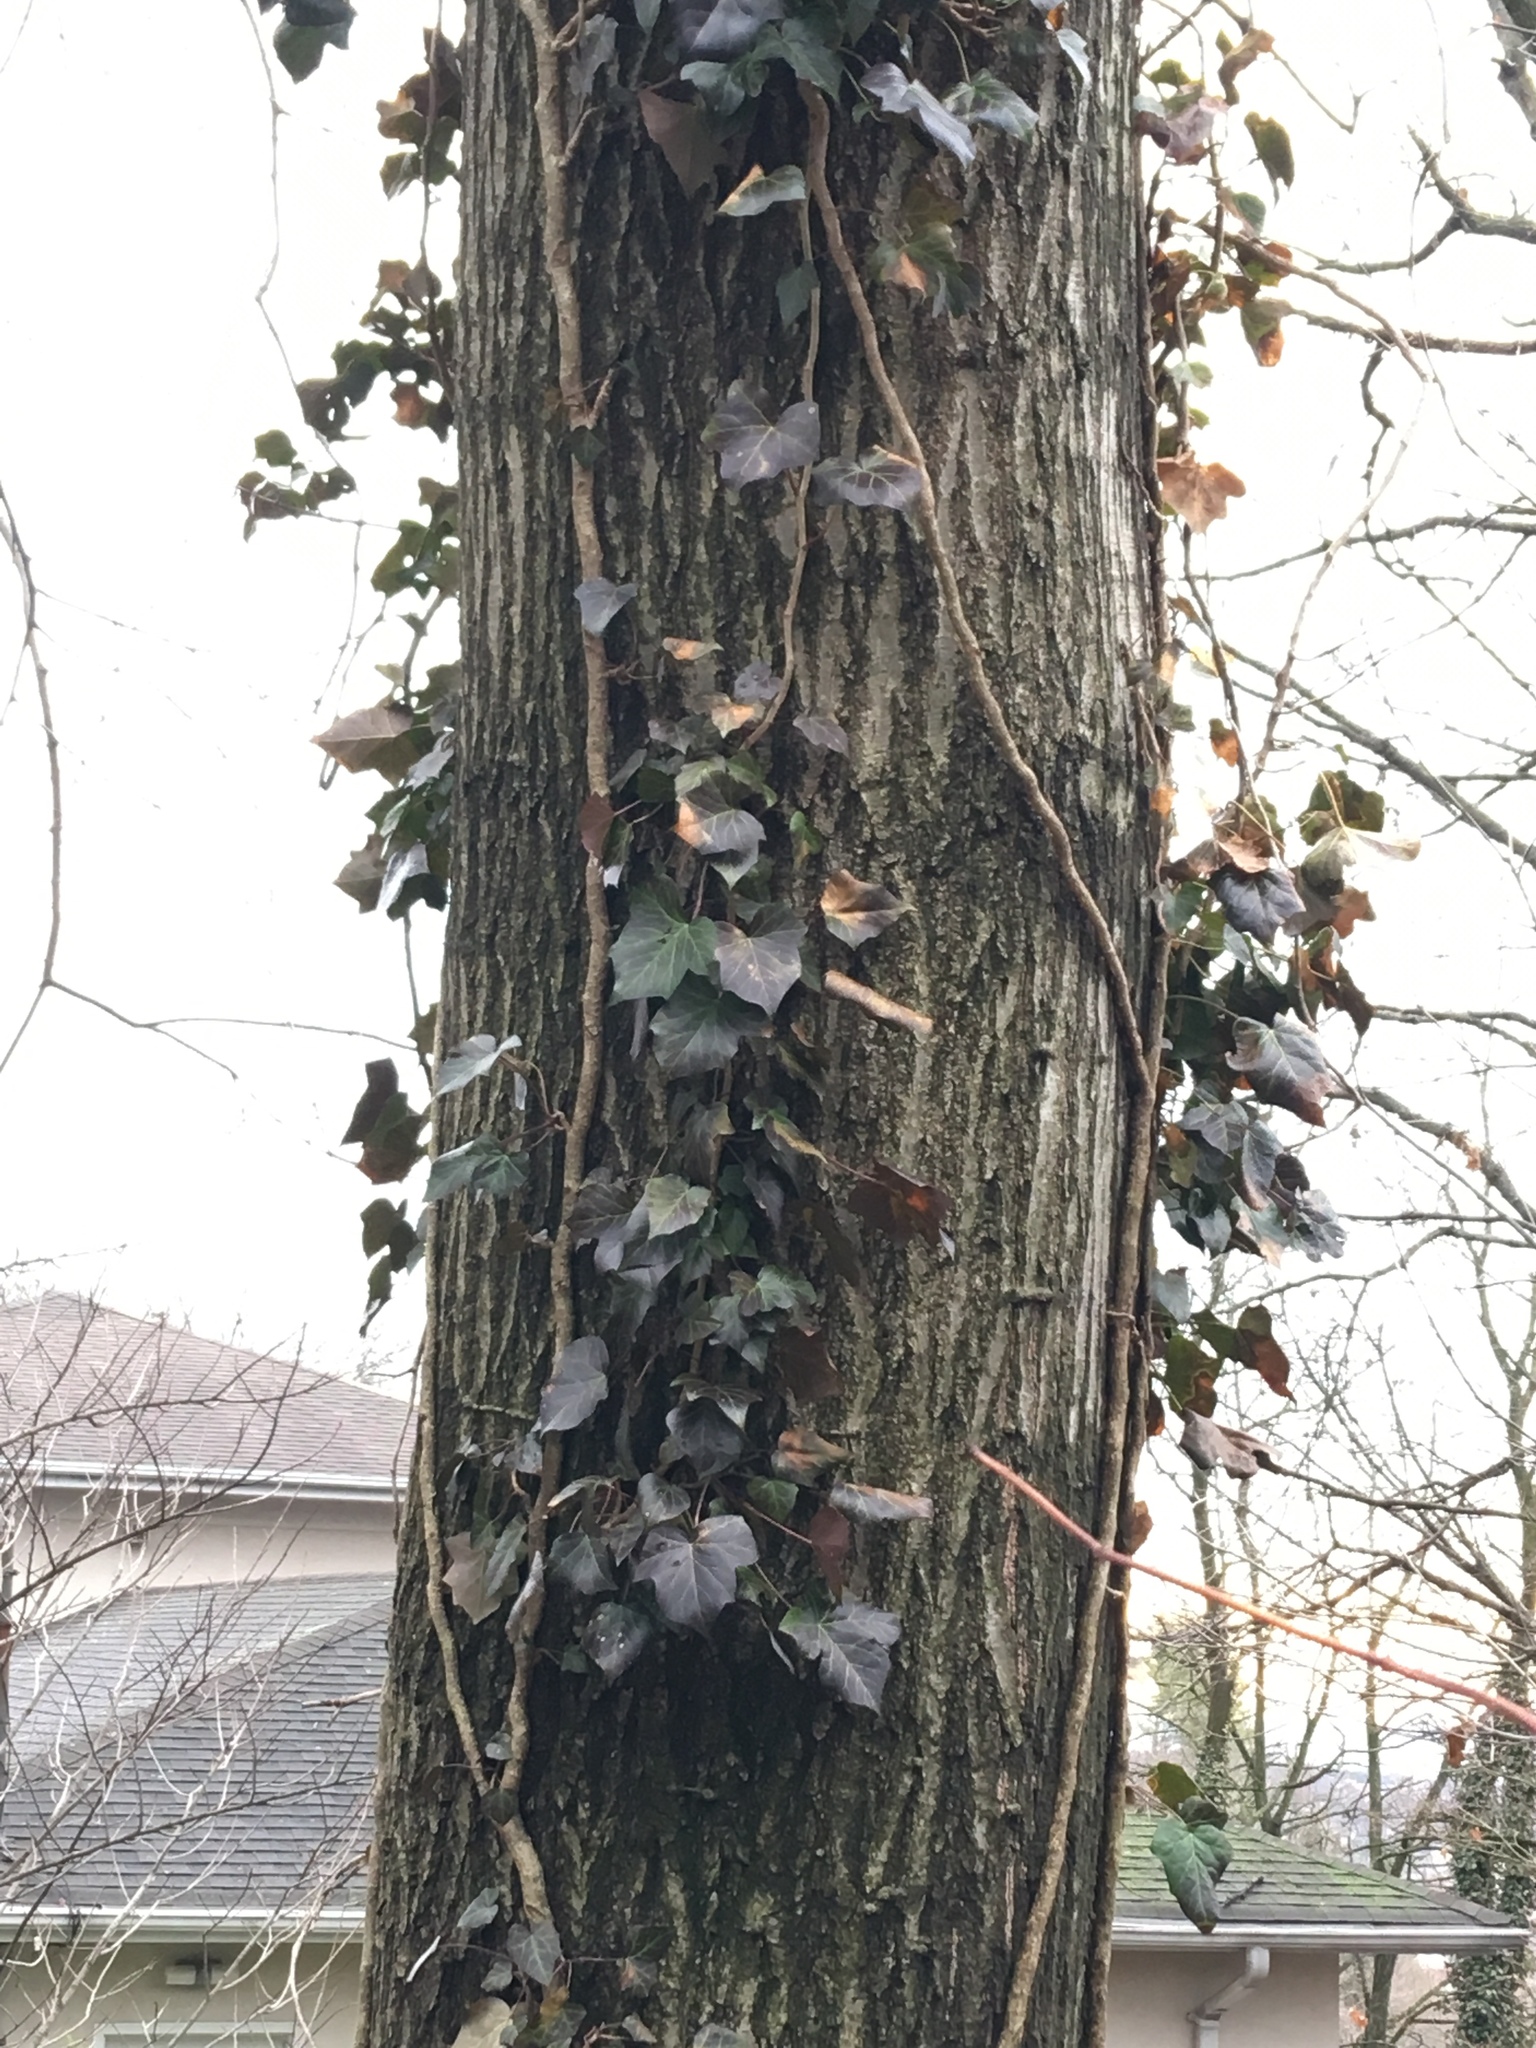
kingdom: Plantae
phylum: Tracheophyta
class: Magnoliopsida
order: Apiales
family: Araliaceae
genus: Hedera
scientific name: Hedera helix
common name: Ivy
